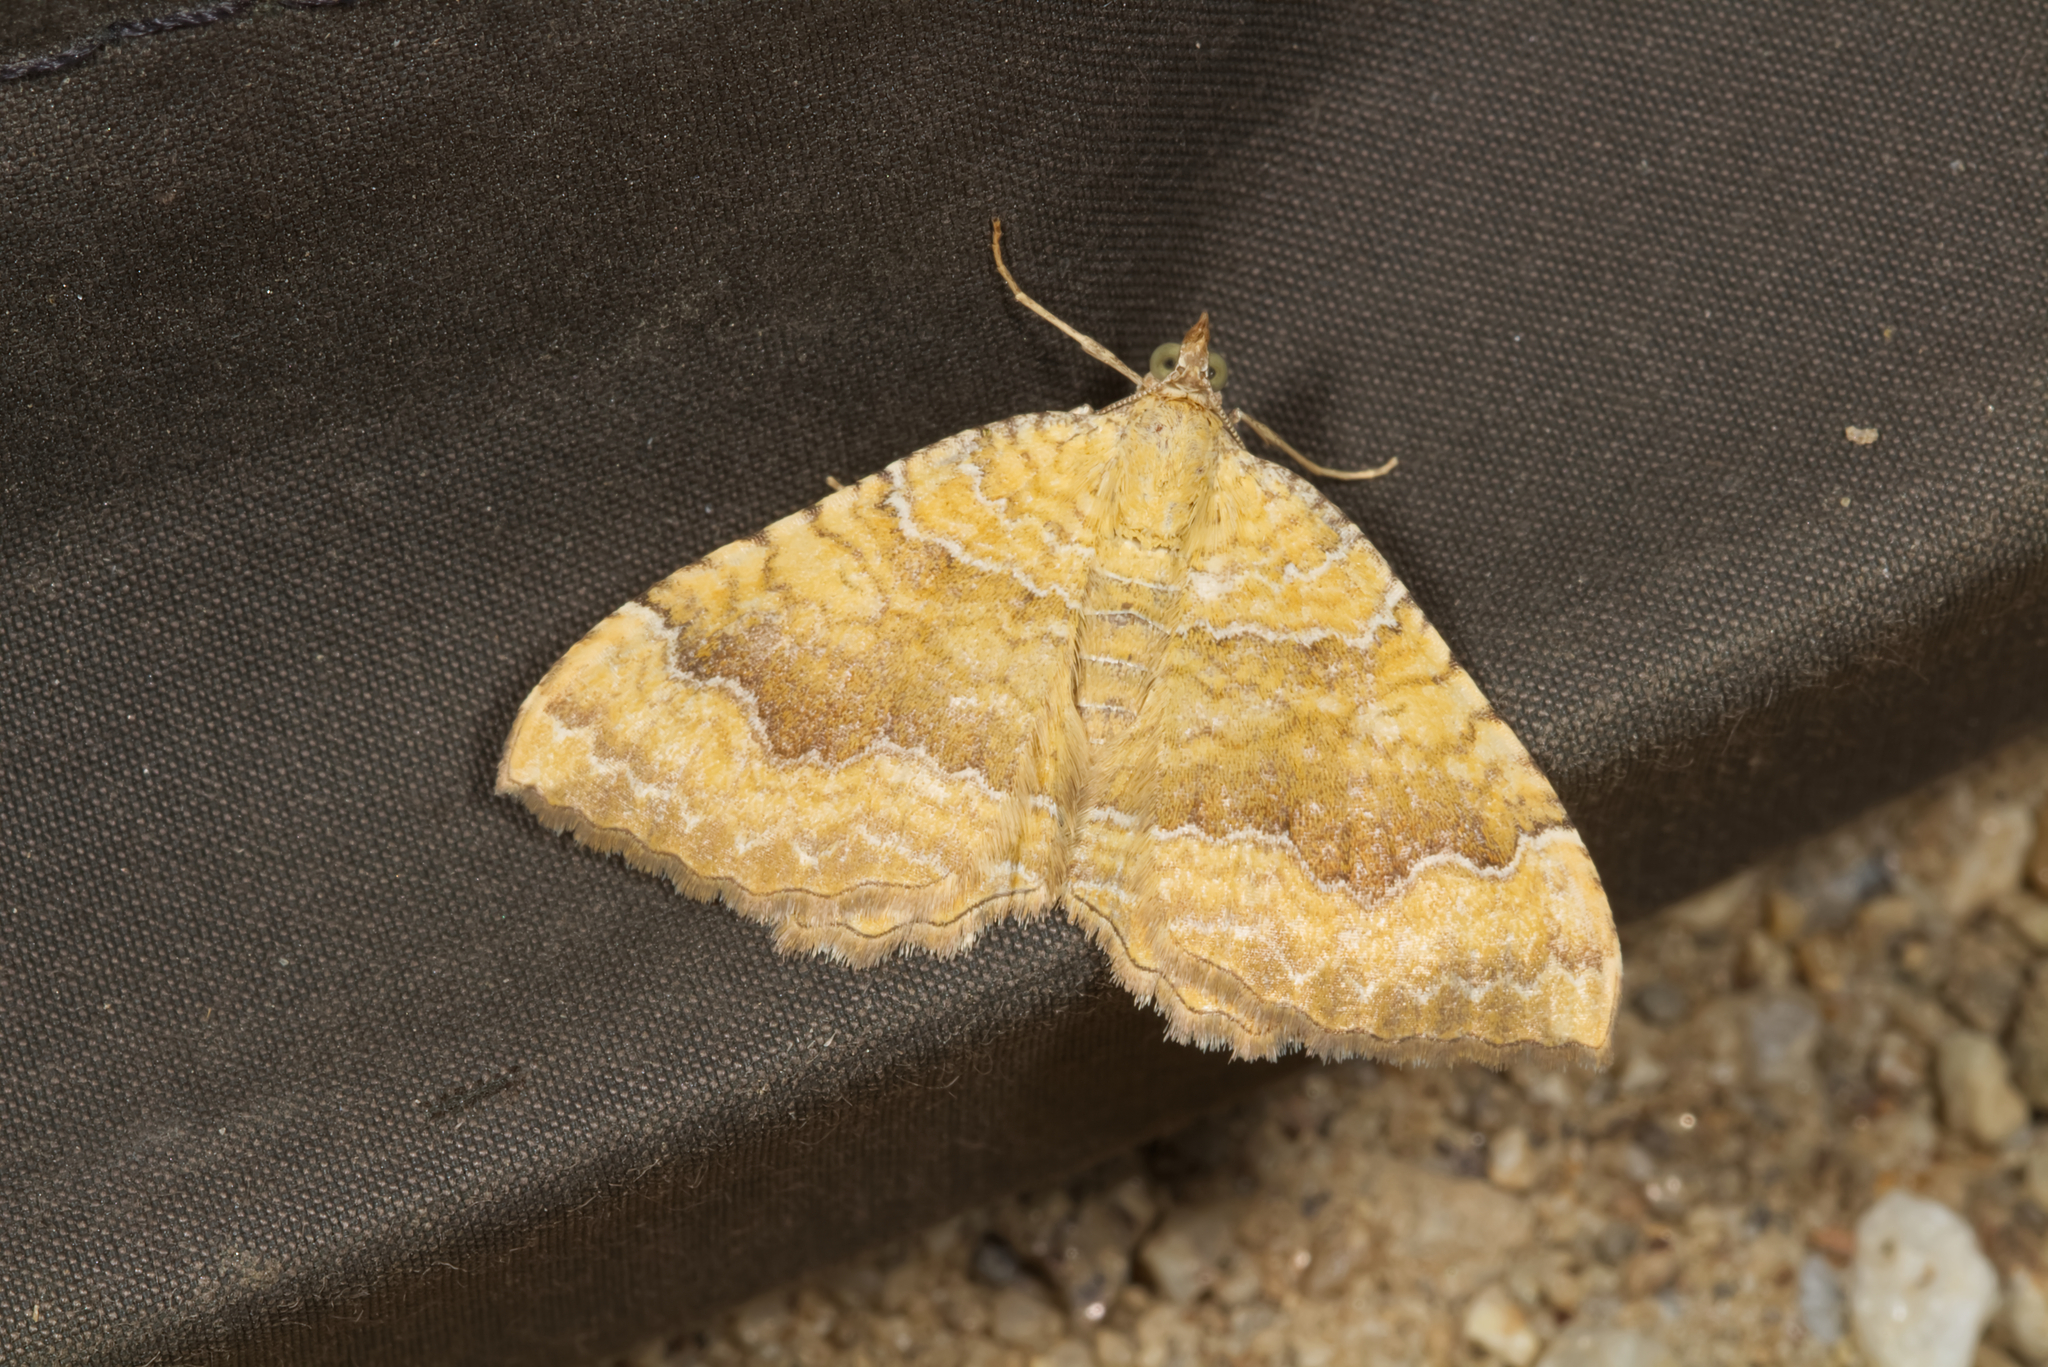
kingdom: Animalia
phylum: Arthropoda
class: Insecta
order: Lepidoptera
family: Geometridae
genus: Camptogramma
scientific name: Camptogramma bilineata
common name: Yellow shell
